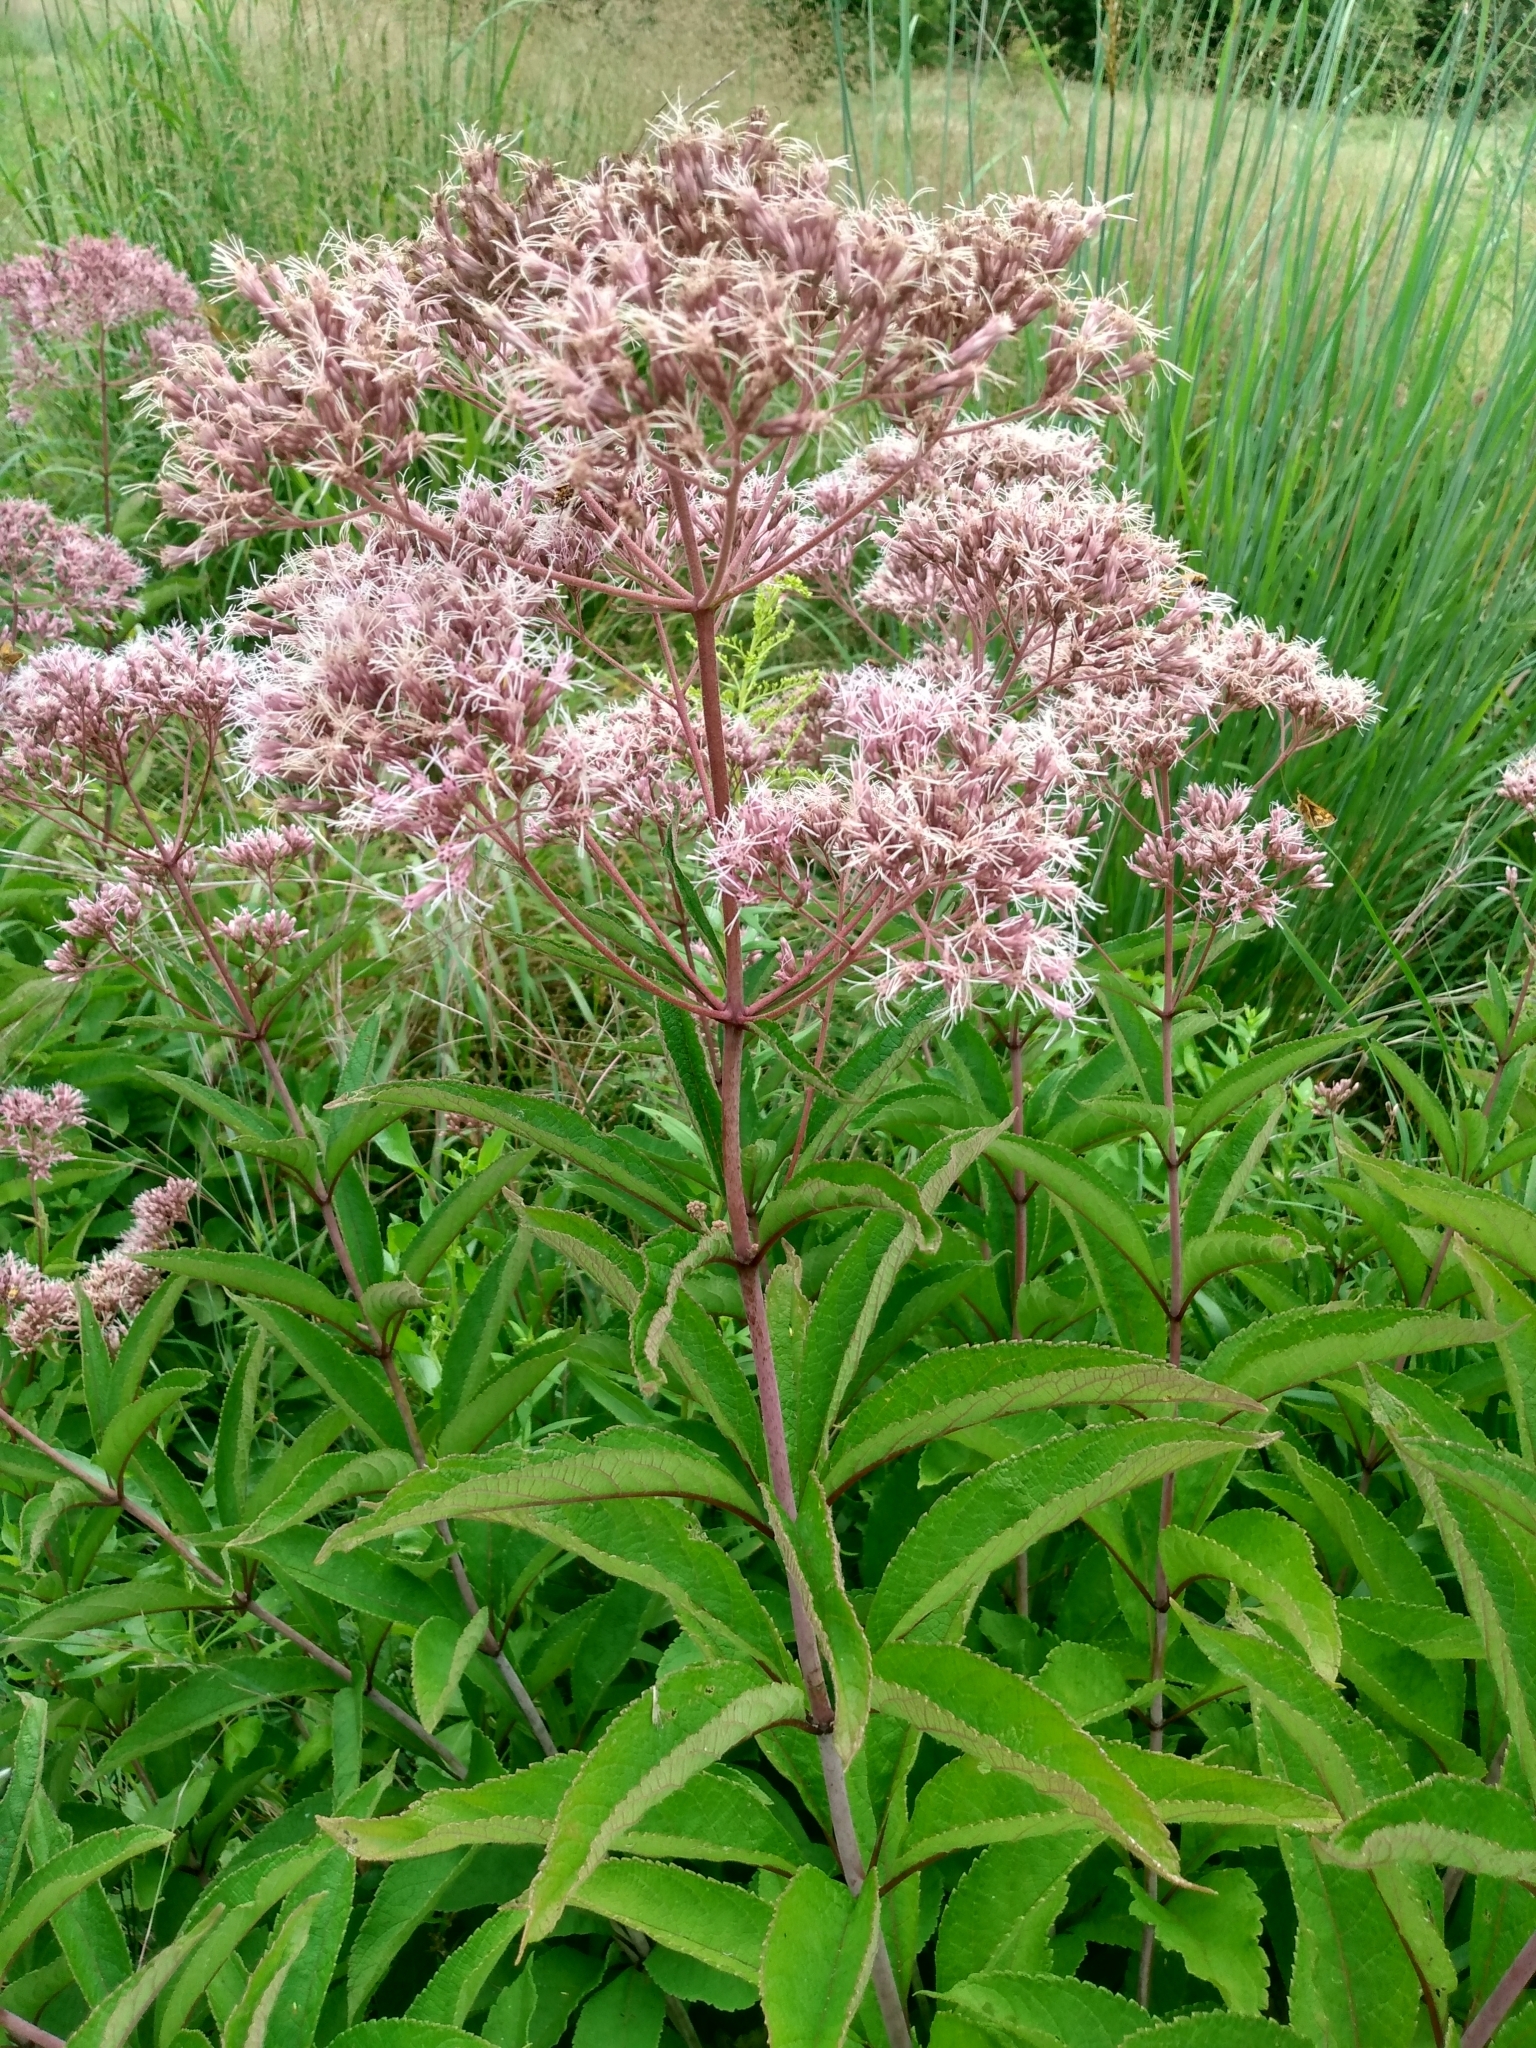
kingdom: Plantae
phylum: Tracheophyta
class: Magnoliopsida
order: Asterales
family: Asteraceae
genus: Eutrochium
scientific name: Eutrochium fistulosum
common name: Trumpetweed
